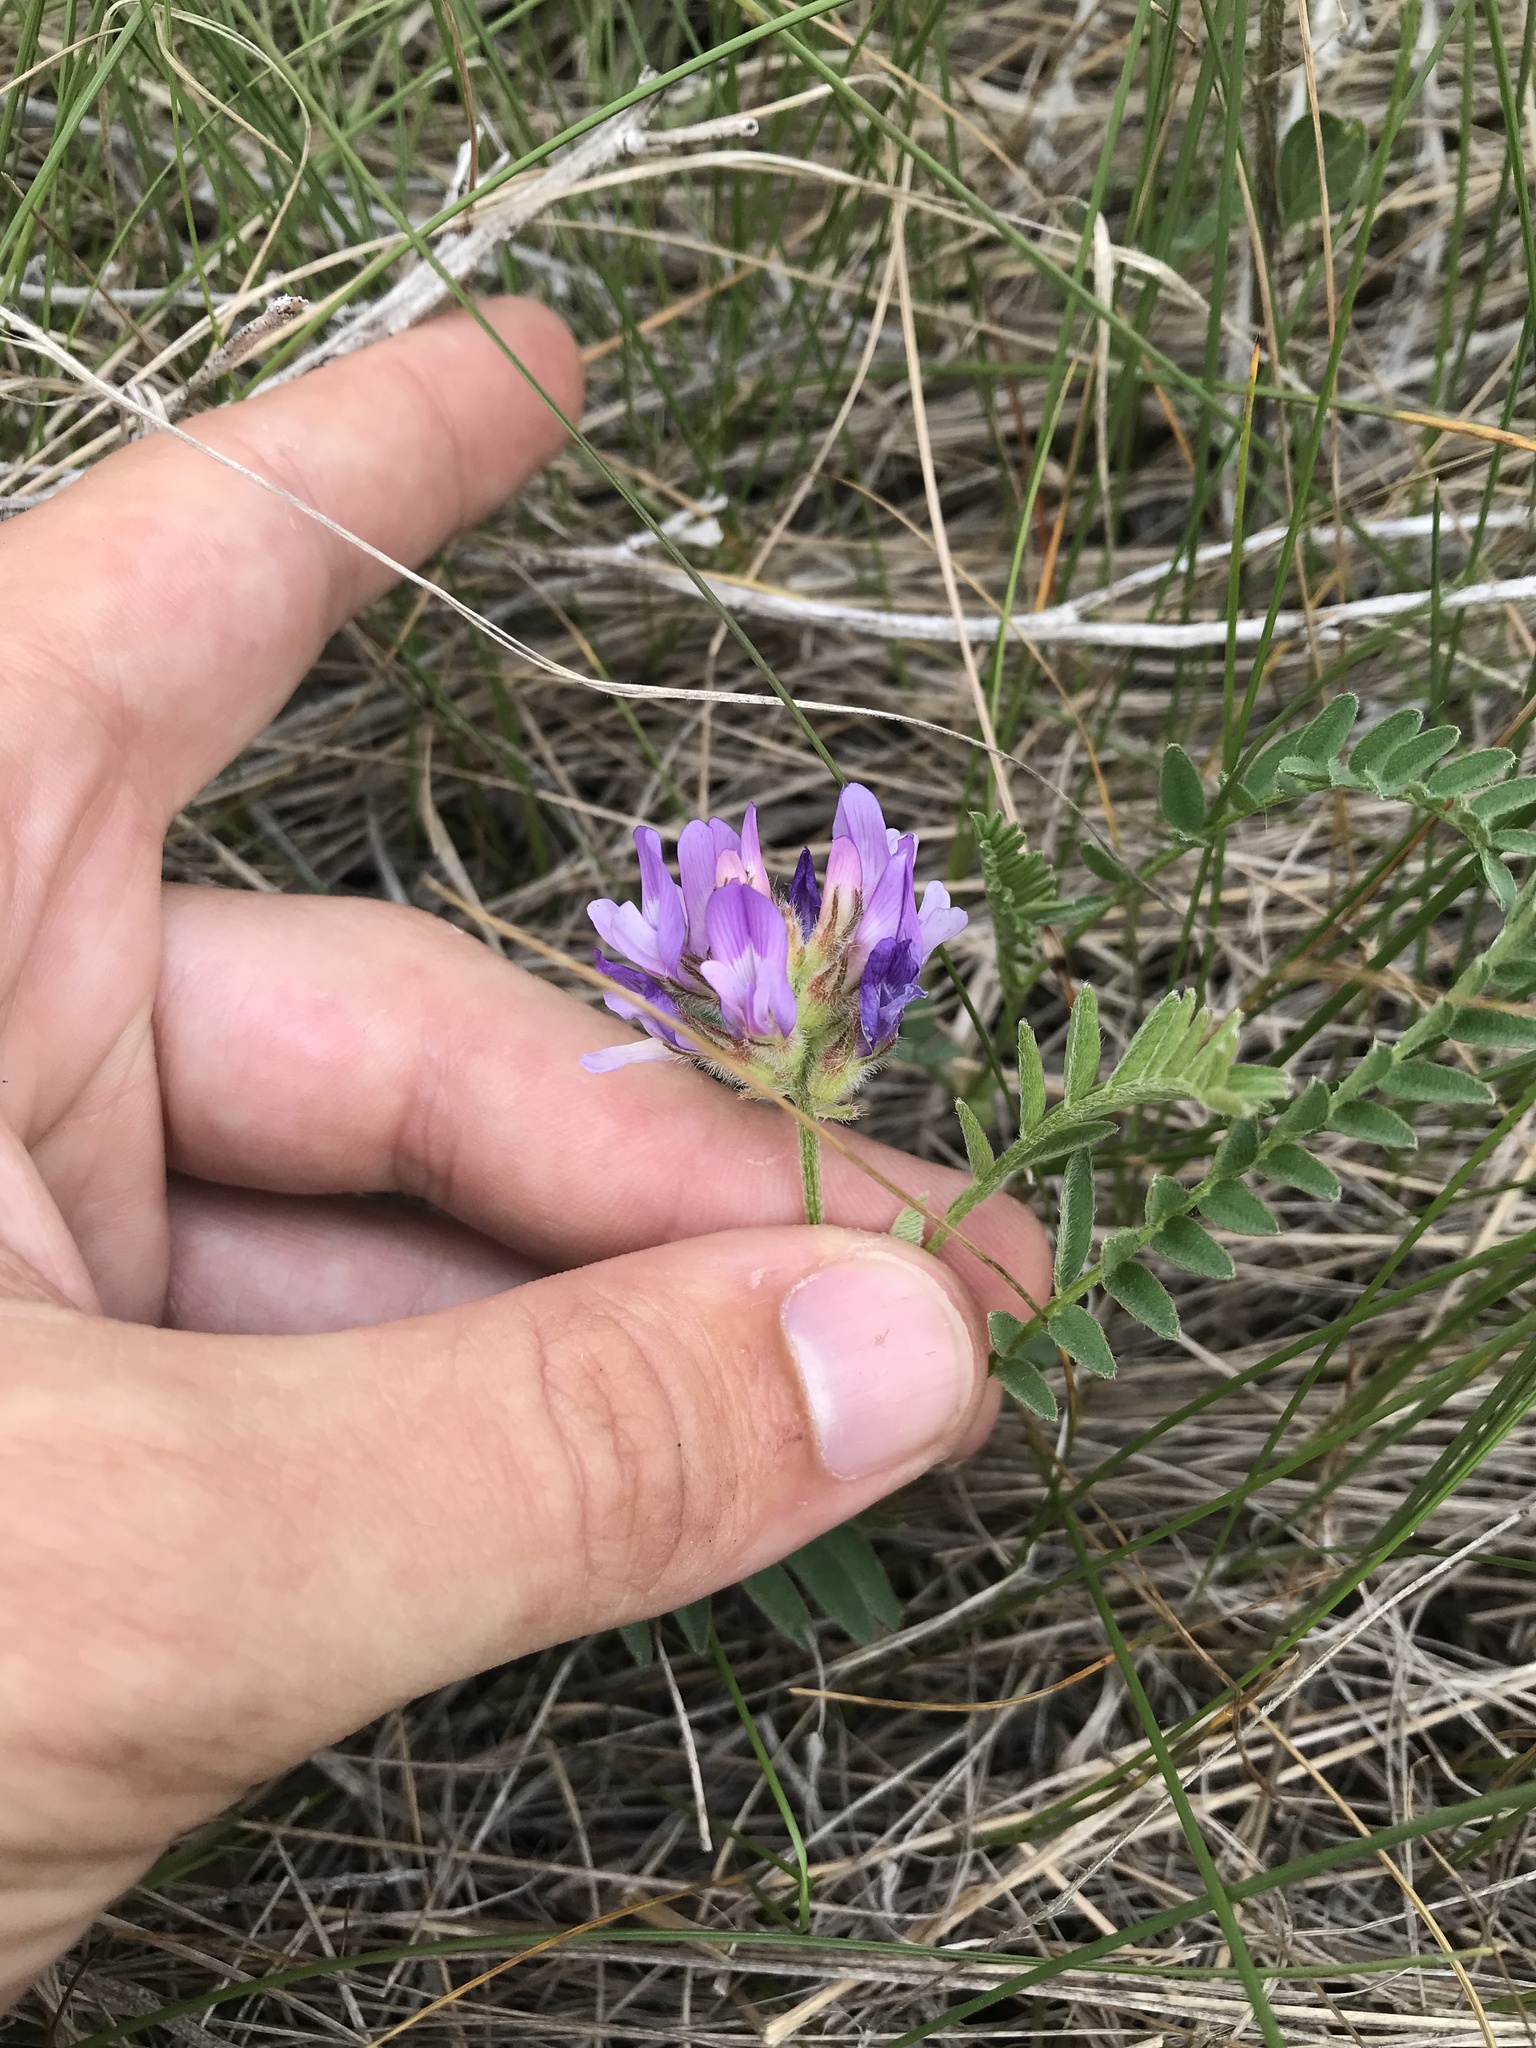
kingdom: Plantae
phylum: Tracheophyta
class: Magnoliopsida
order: Fabales
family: Fabaceae
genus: Astragalus
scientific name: Astragalus agrestis
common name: Field milk-vetch
